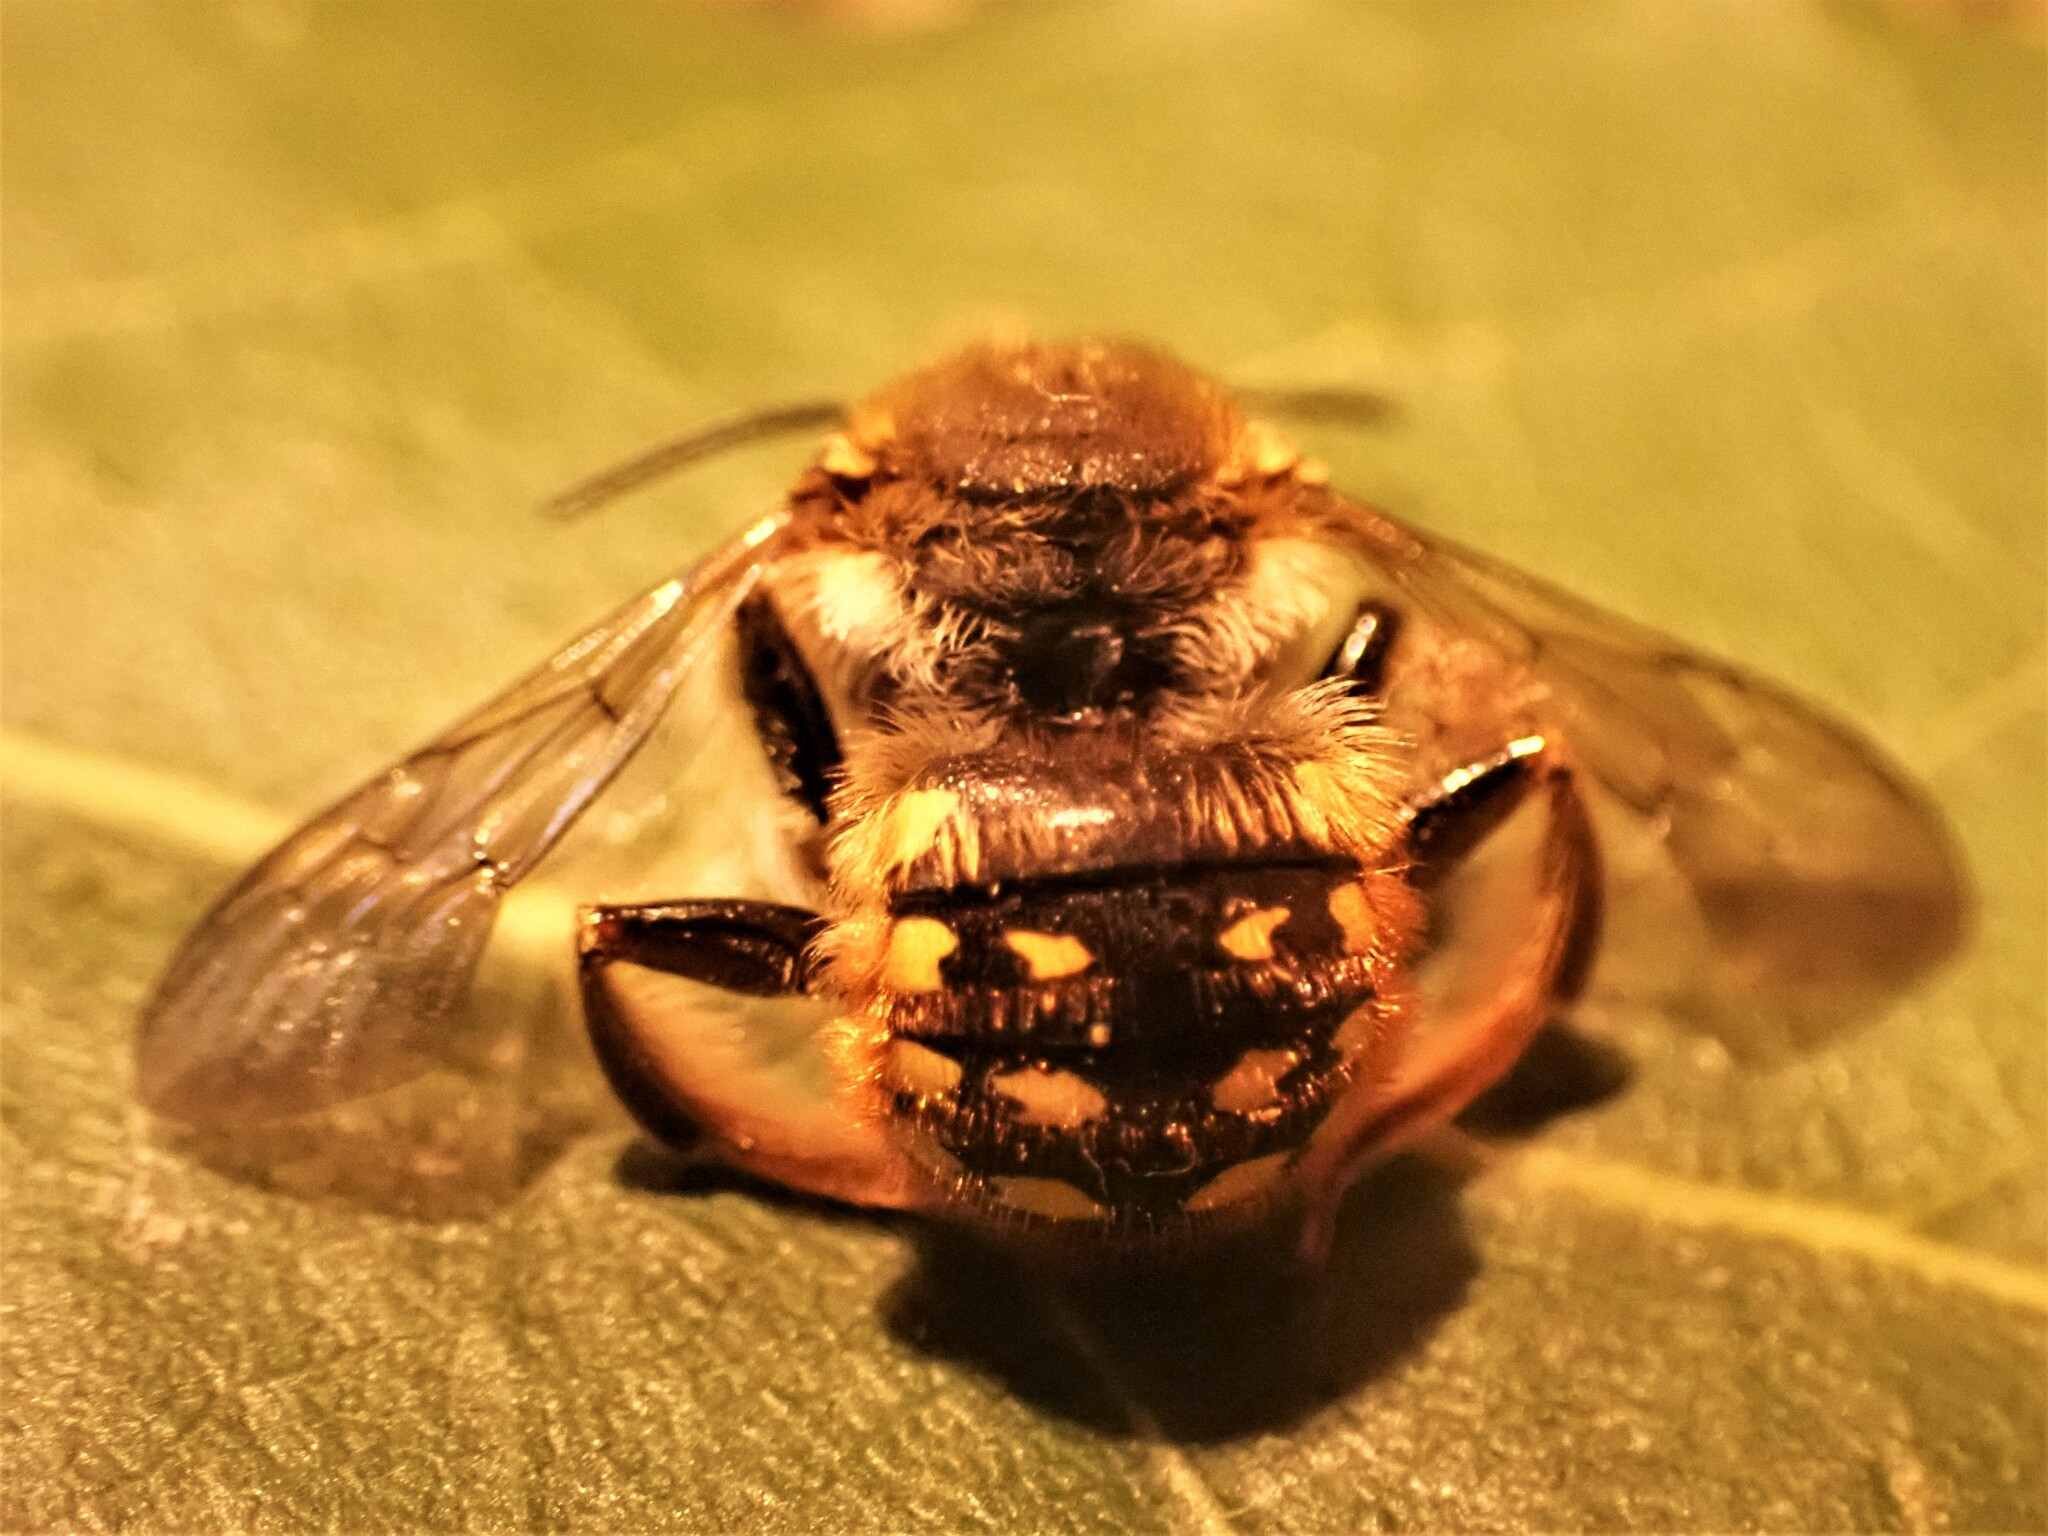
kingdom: Animalia
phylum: Arthropoda
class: Insecta
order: Hymenoptera
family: Megachilidae
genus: Anthidium
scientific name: Anthidium manicatum
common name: Wool carder bee
